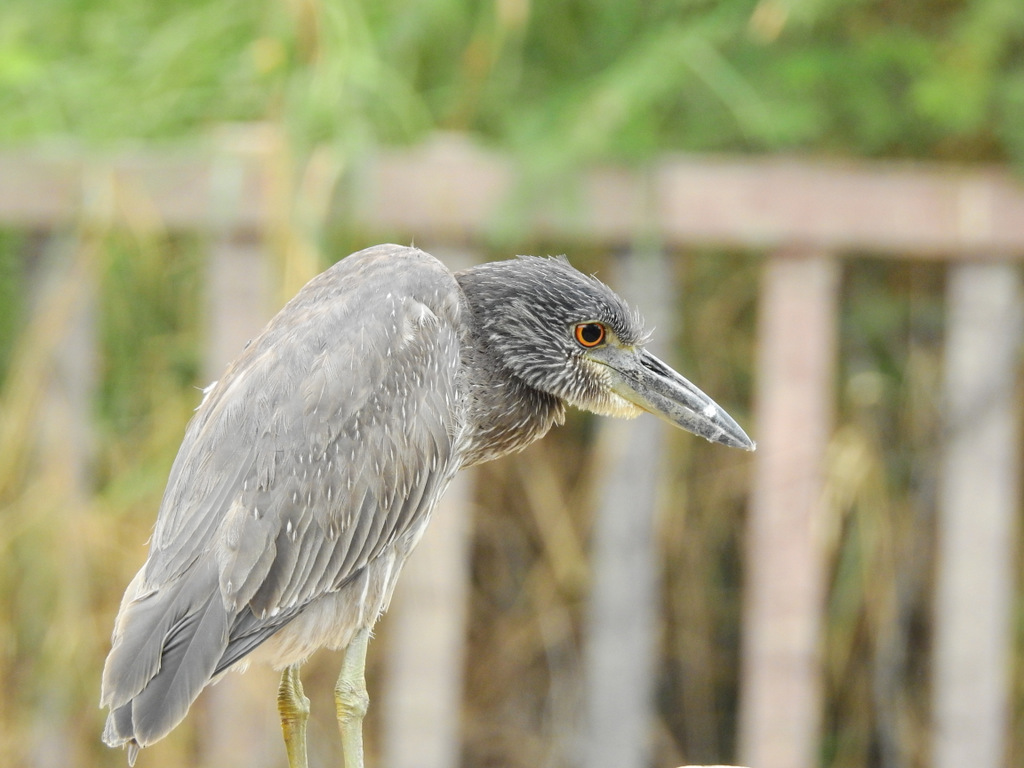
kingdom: Animalia
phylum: Chordata
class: Aves
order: Pelecaniformes
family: Ardeidae
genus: Nyctanassa
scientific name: Nyctanassa violacea
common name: Yellow-crowned night heron
